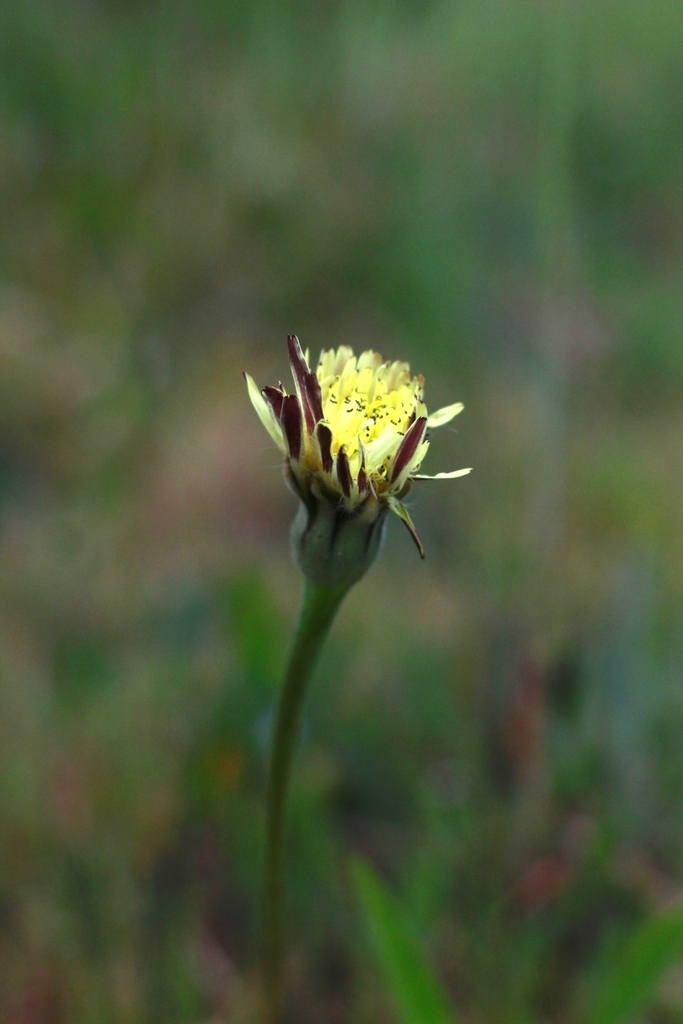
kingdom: Plantae
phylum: Tracheophyta
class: Magnoliopsida
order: Asterales
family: Asteraceae
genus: Urospermum
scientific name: Urospermum dalechampii
